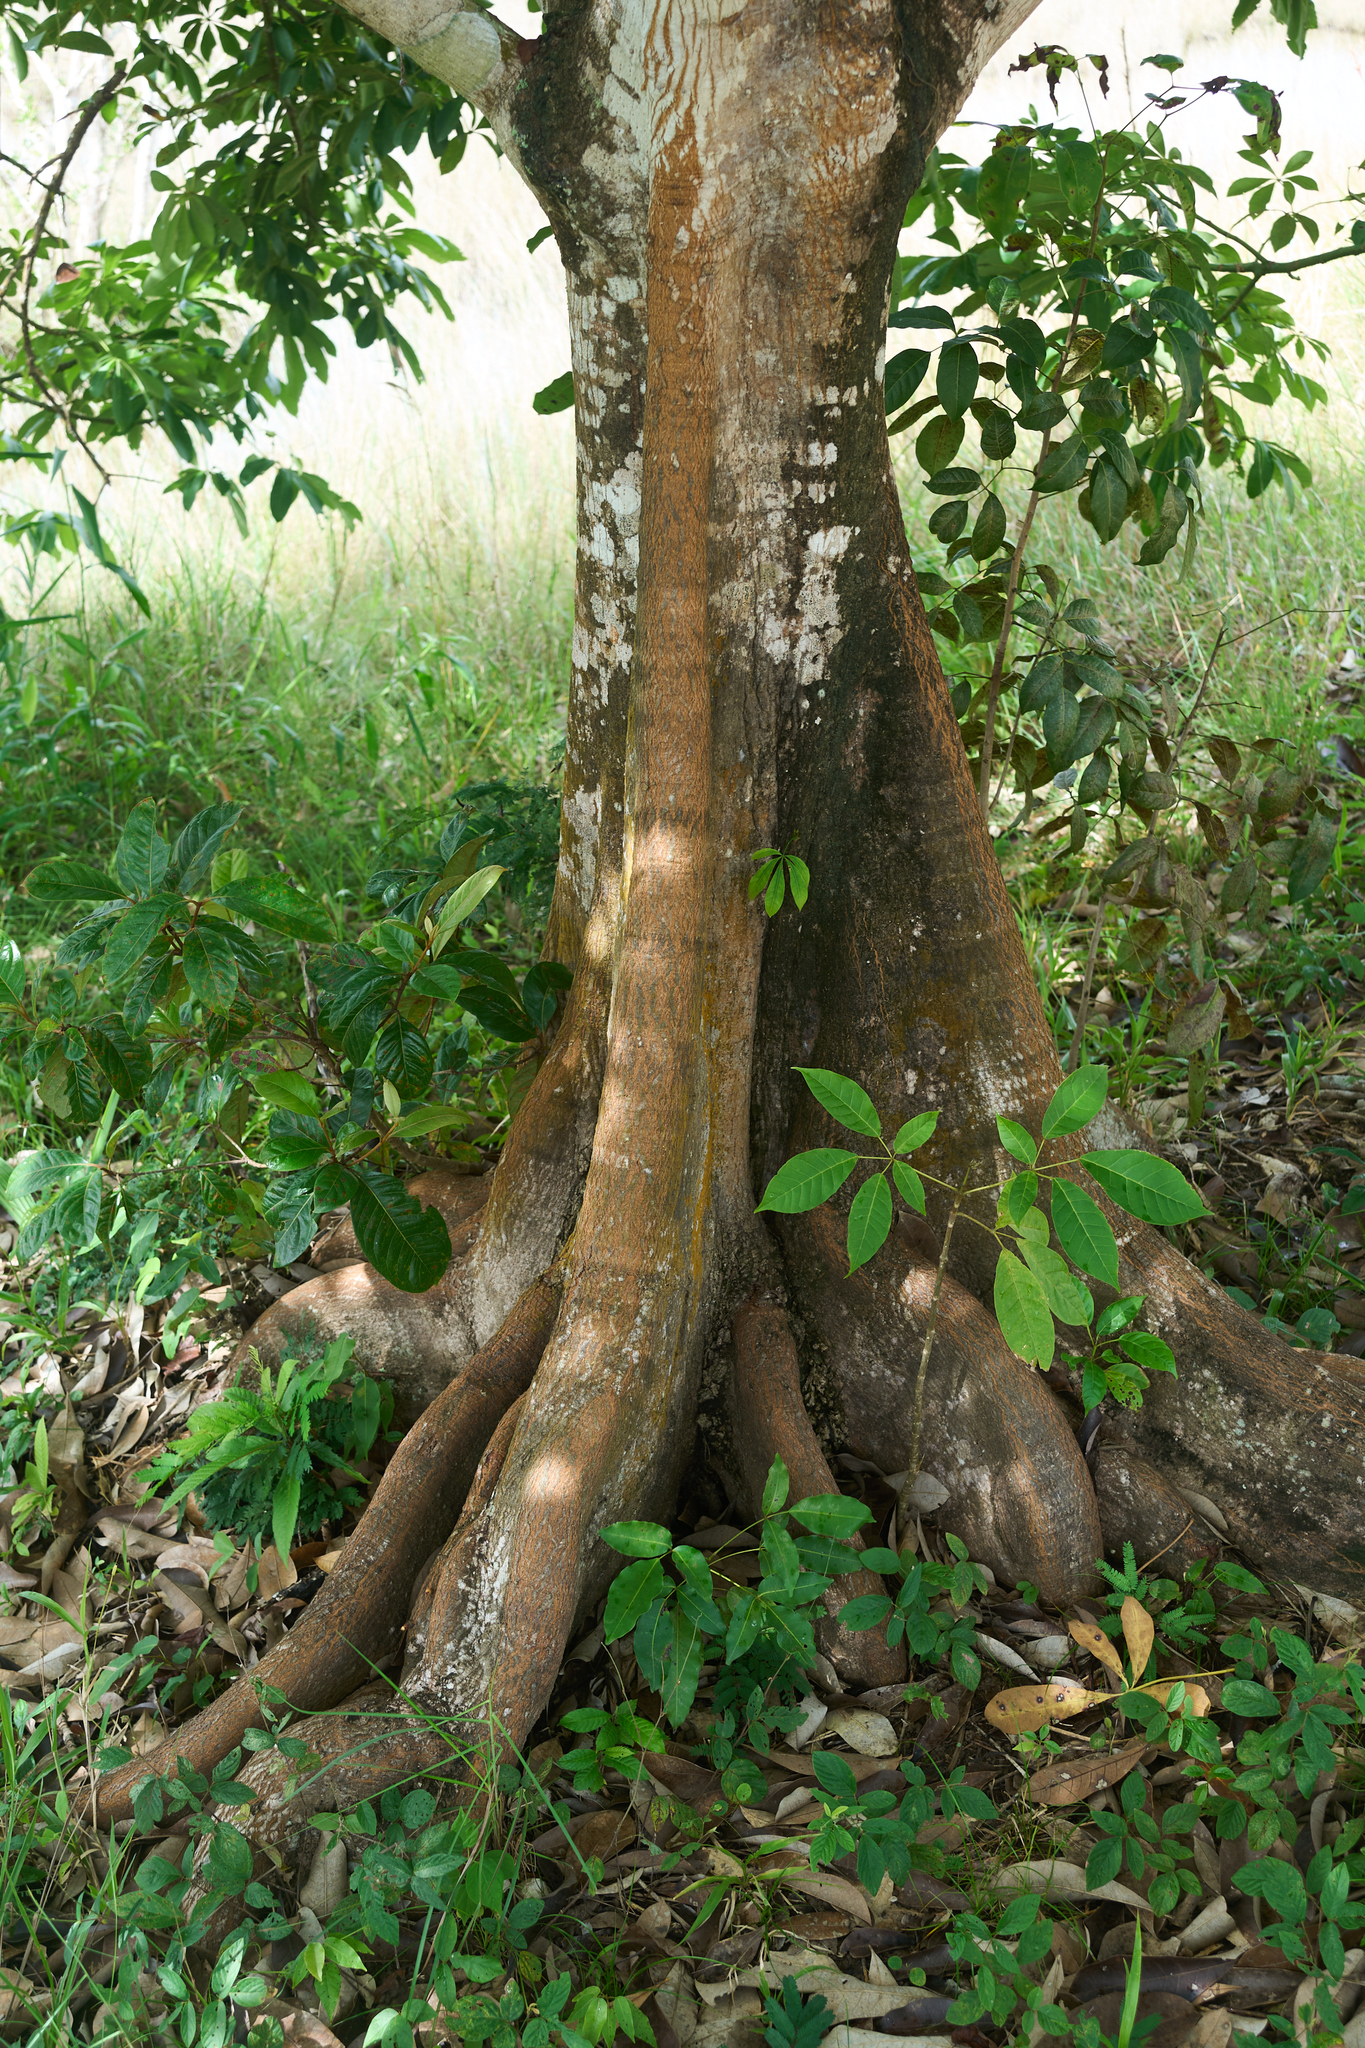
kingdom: Plantae
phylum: Tracheophyta
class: Magnoliopsida
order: Malvales
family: Malvaceae
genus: Pachira
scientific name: Pachira aquatica
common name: Provision-tree
